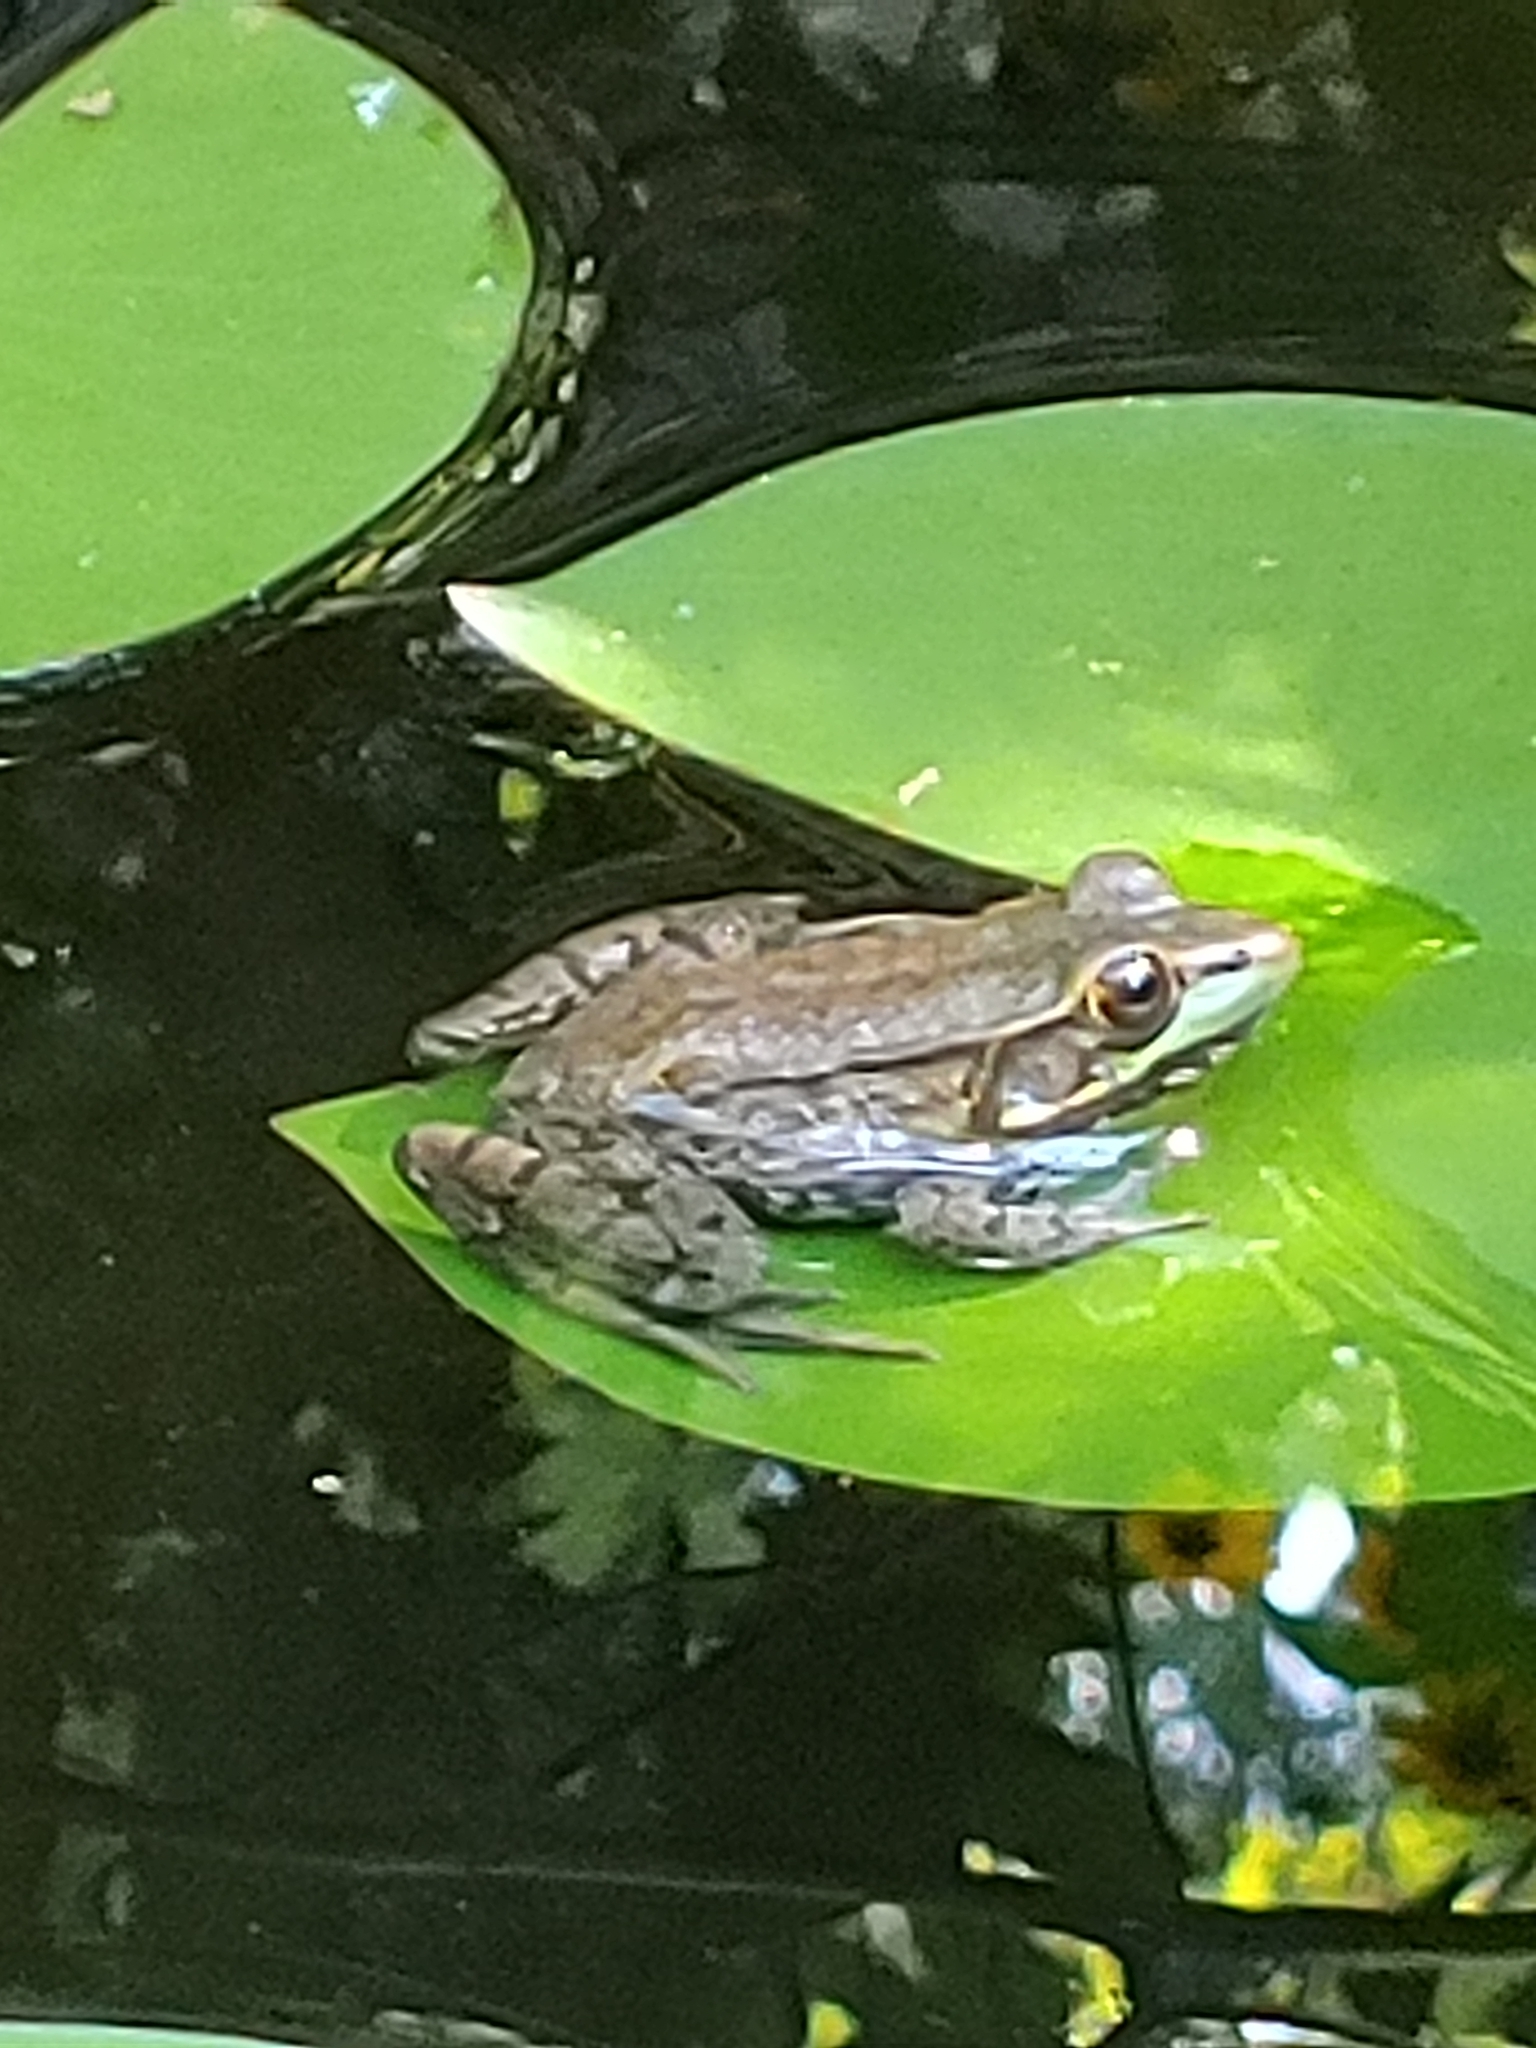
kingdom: Animalia
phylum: Chordata
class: Amphibia
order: Anura
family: Ranidae
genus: Lithobates
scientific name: Lithobates clamitans
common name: Green frog
